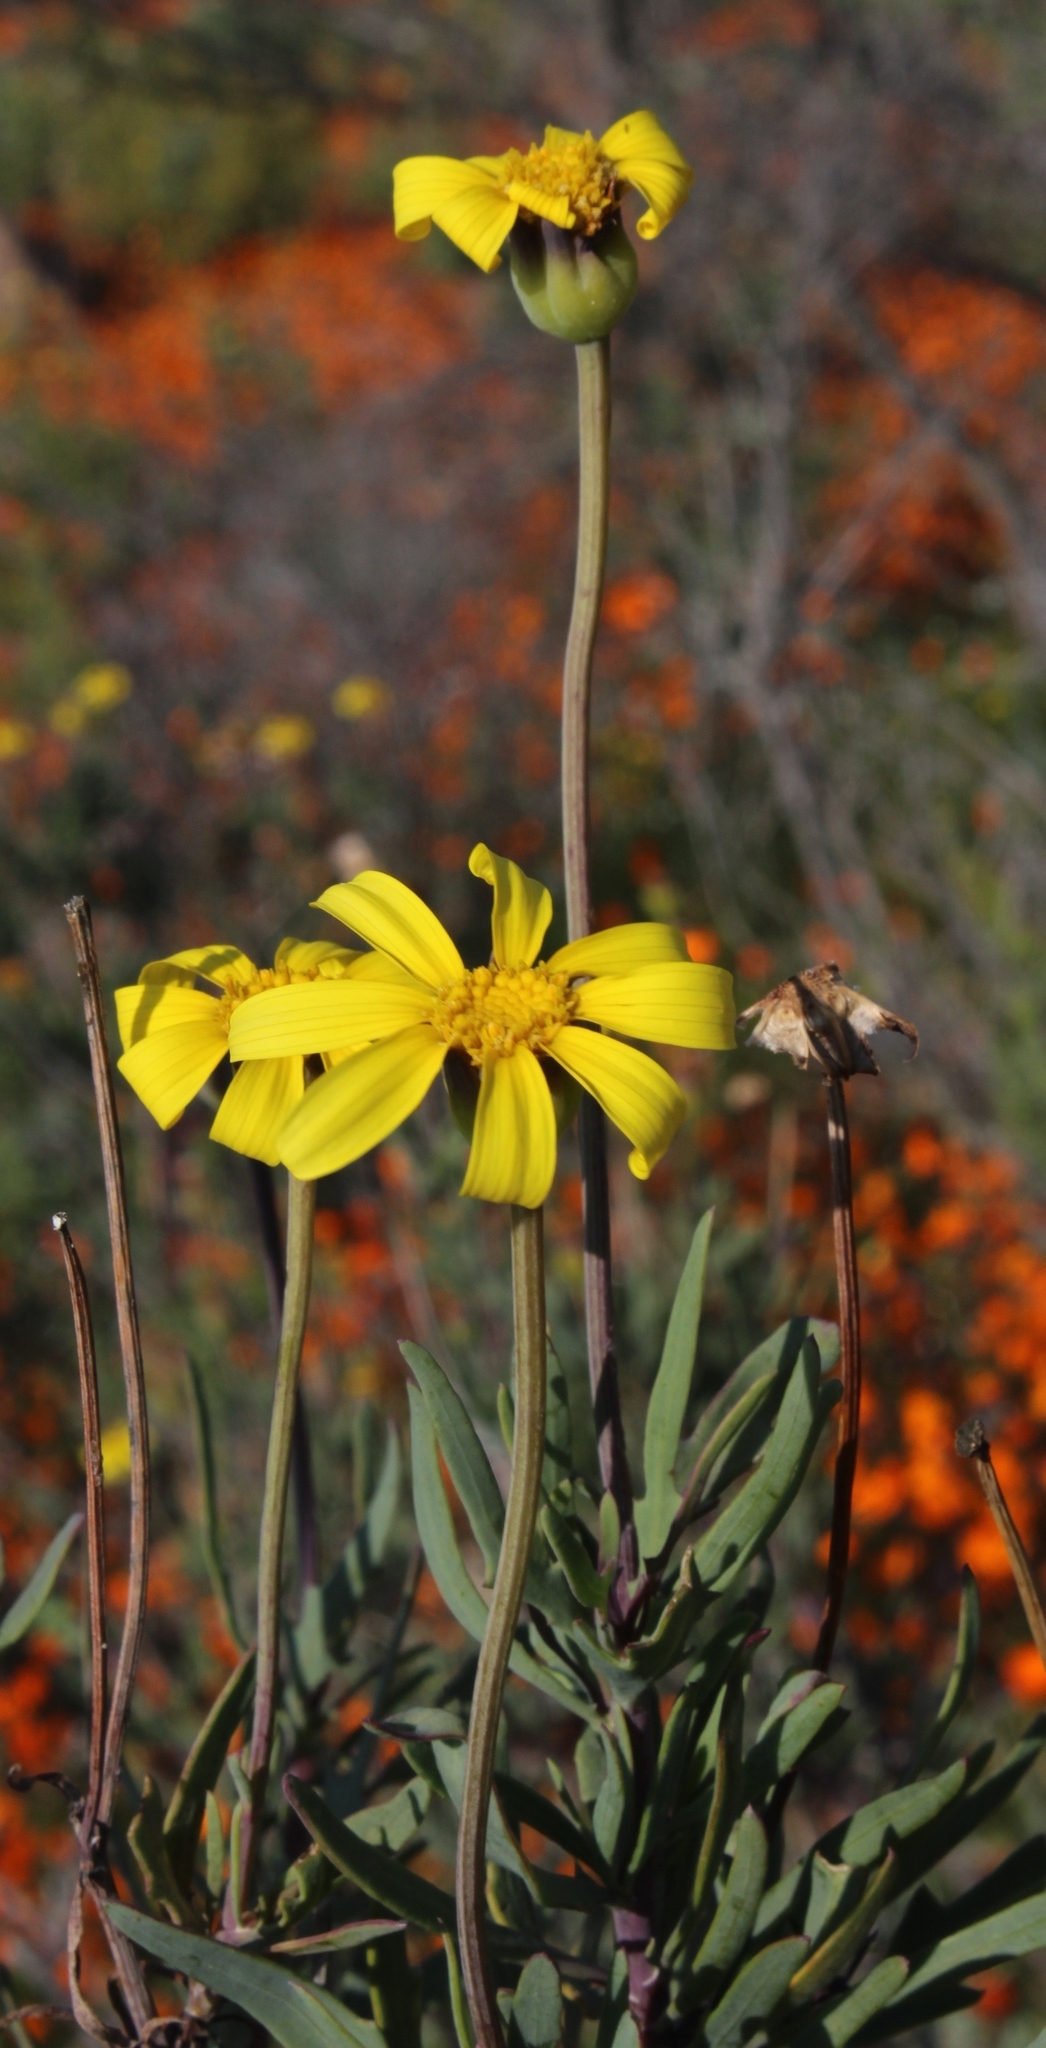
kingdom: Plantae
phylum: Tracheophyta
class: Magnoliopsida
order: Asterales
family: Asteraceae
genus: Othonna
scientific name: Othonna coronopifolia
